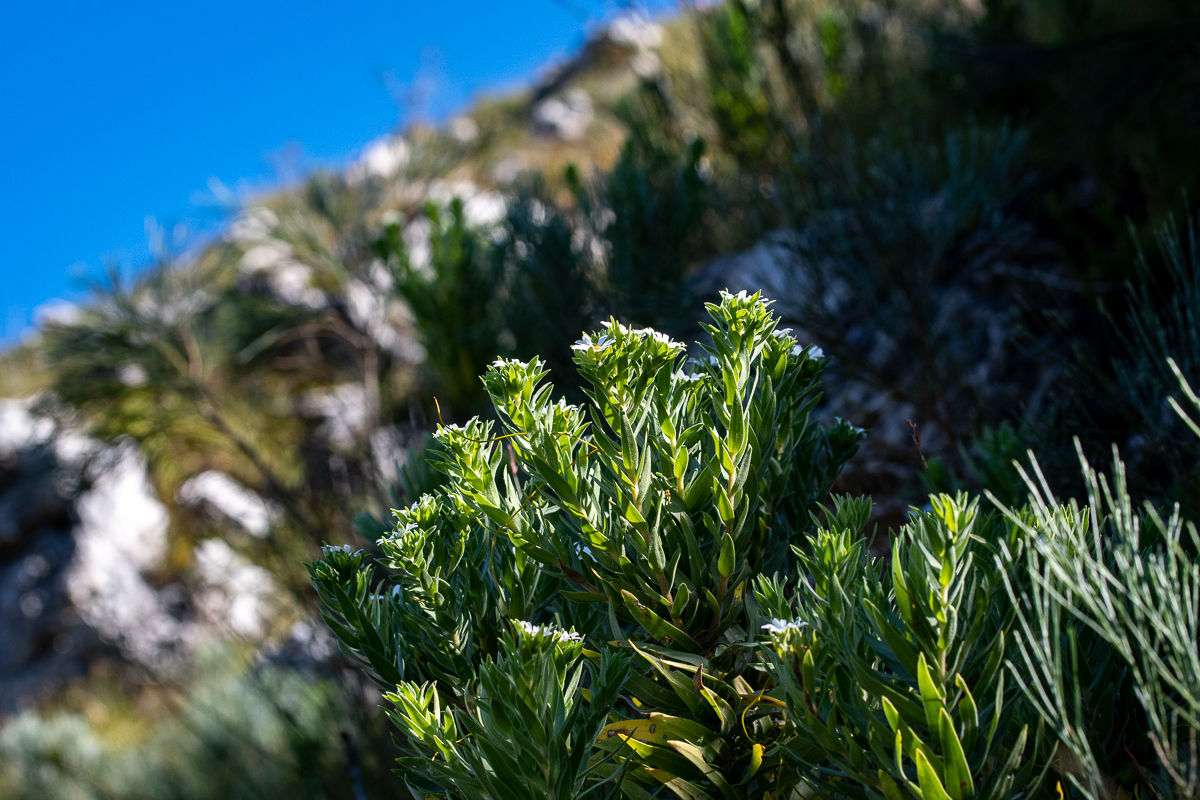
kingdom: Plantae
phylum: Tracheophyta
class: Magnoliopsida
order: Asterales
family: Asteraceae
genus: Osmitopsis
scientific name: Osmitopsis asteriscoides
